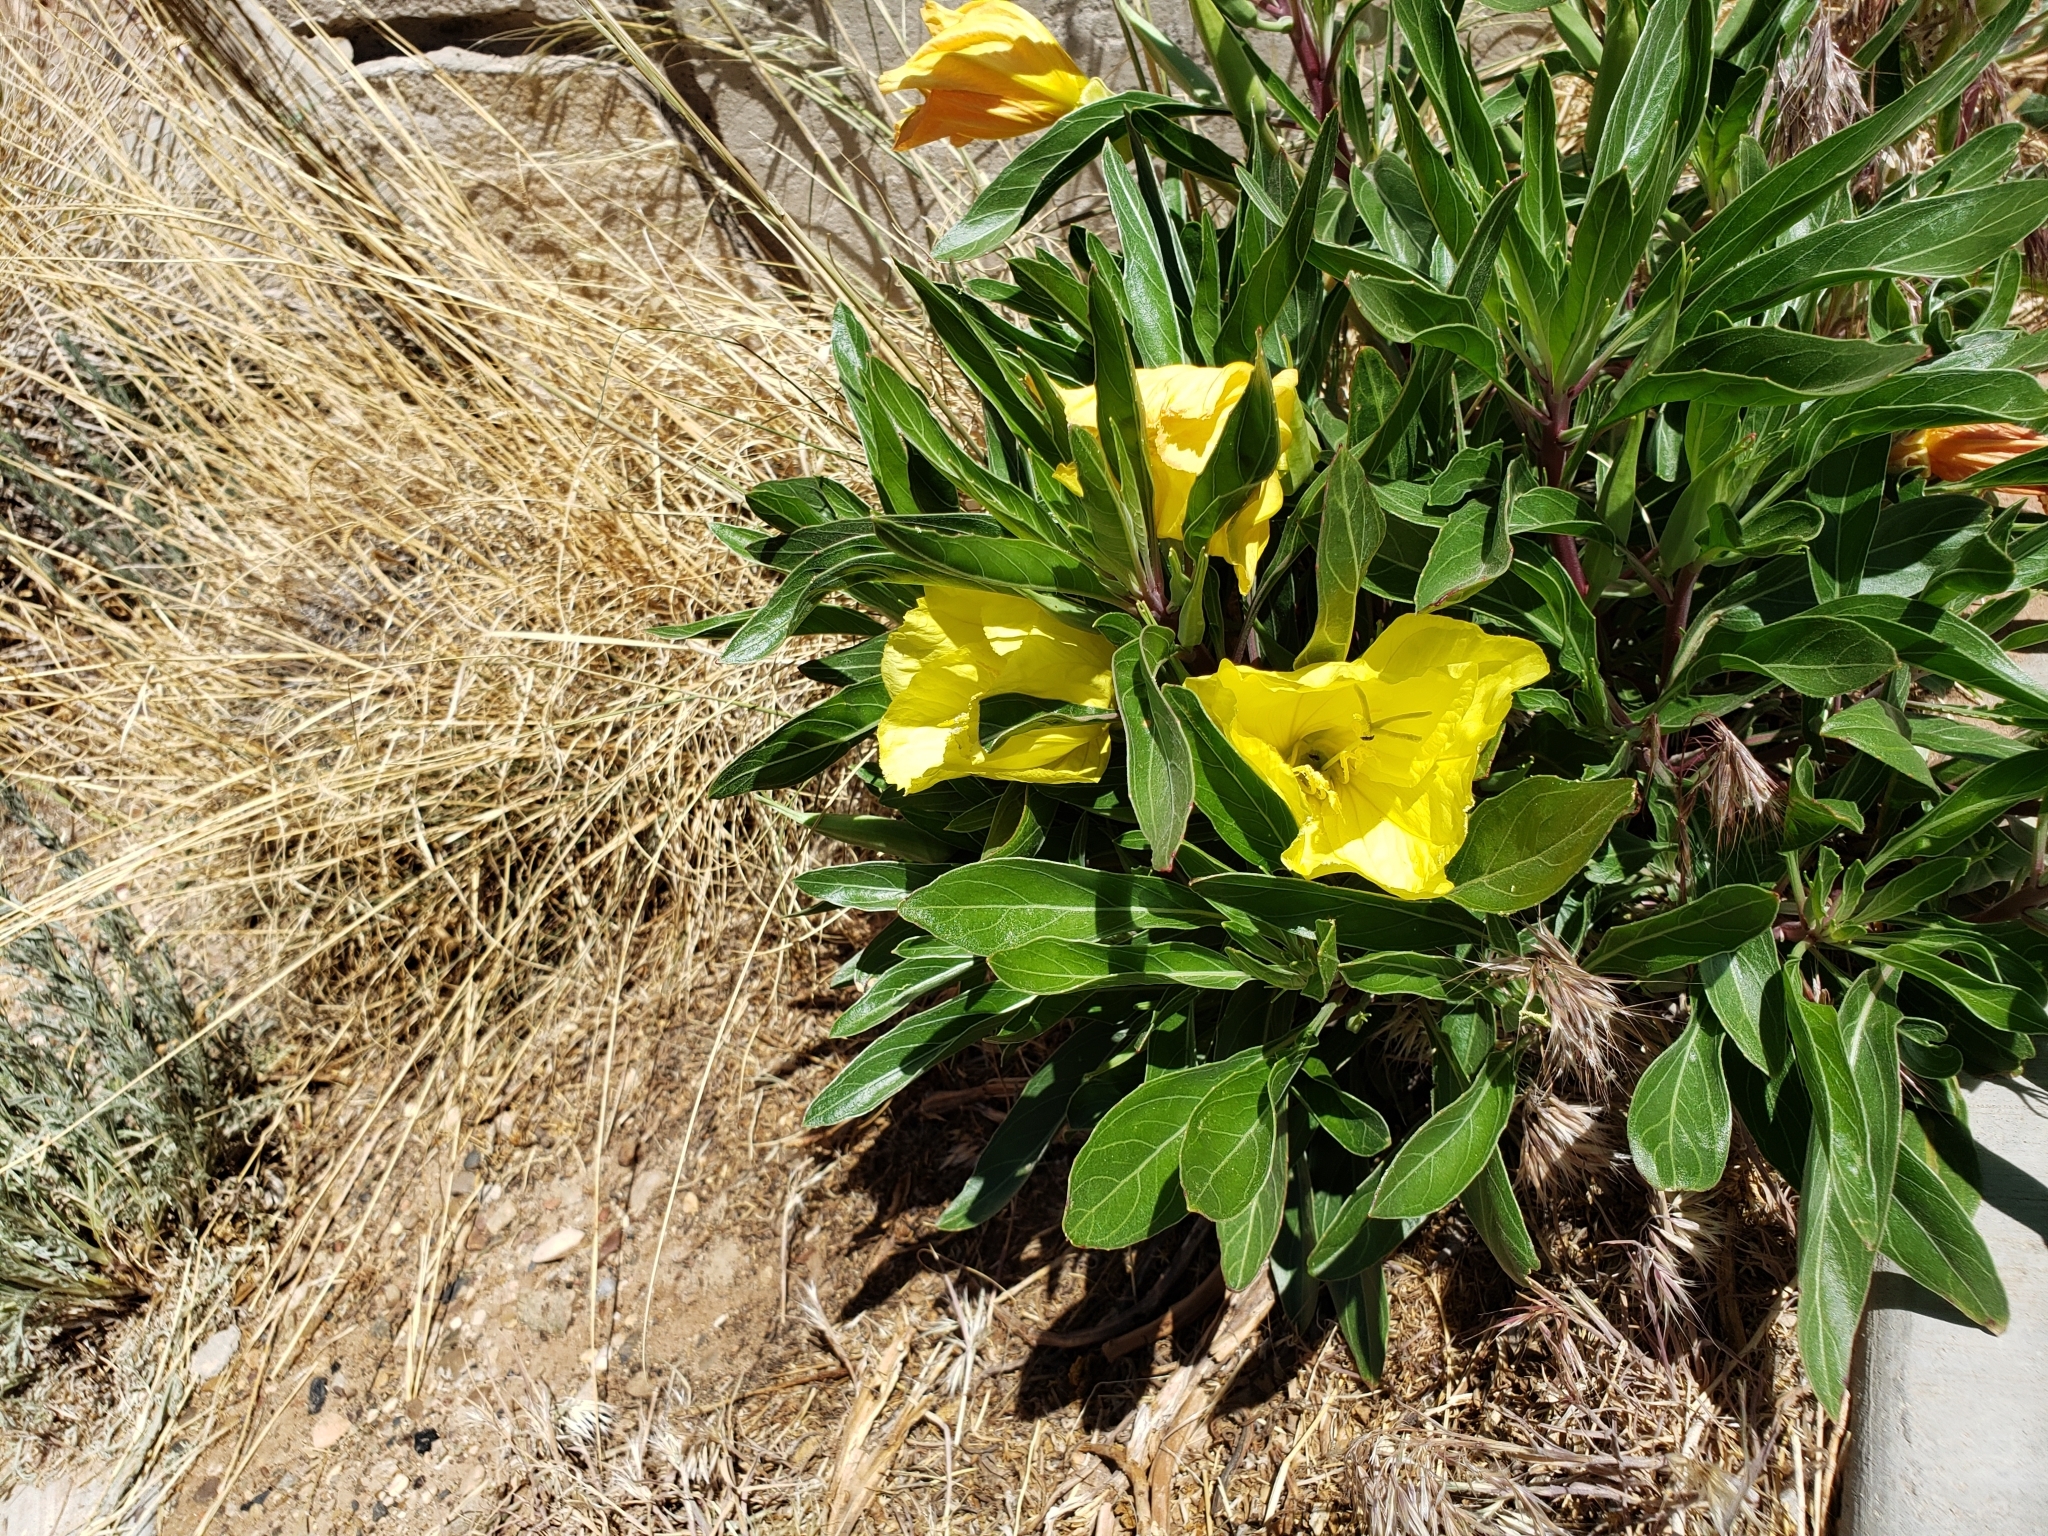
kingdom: Plantae
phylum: Tracheophyta
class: Magnoliopsida
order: Myrtales
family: Onagraceae
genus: Oenothera
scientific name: Oenothera howardii
